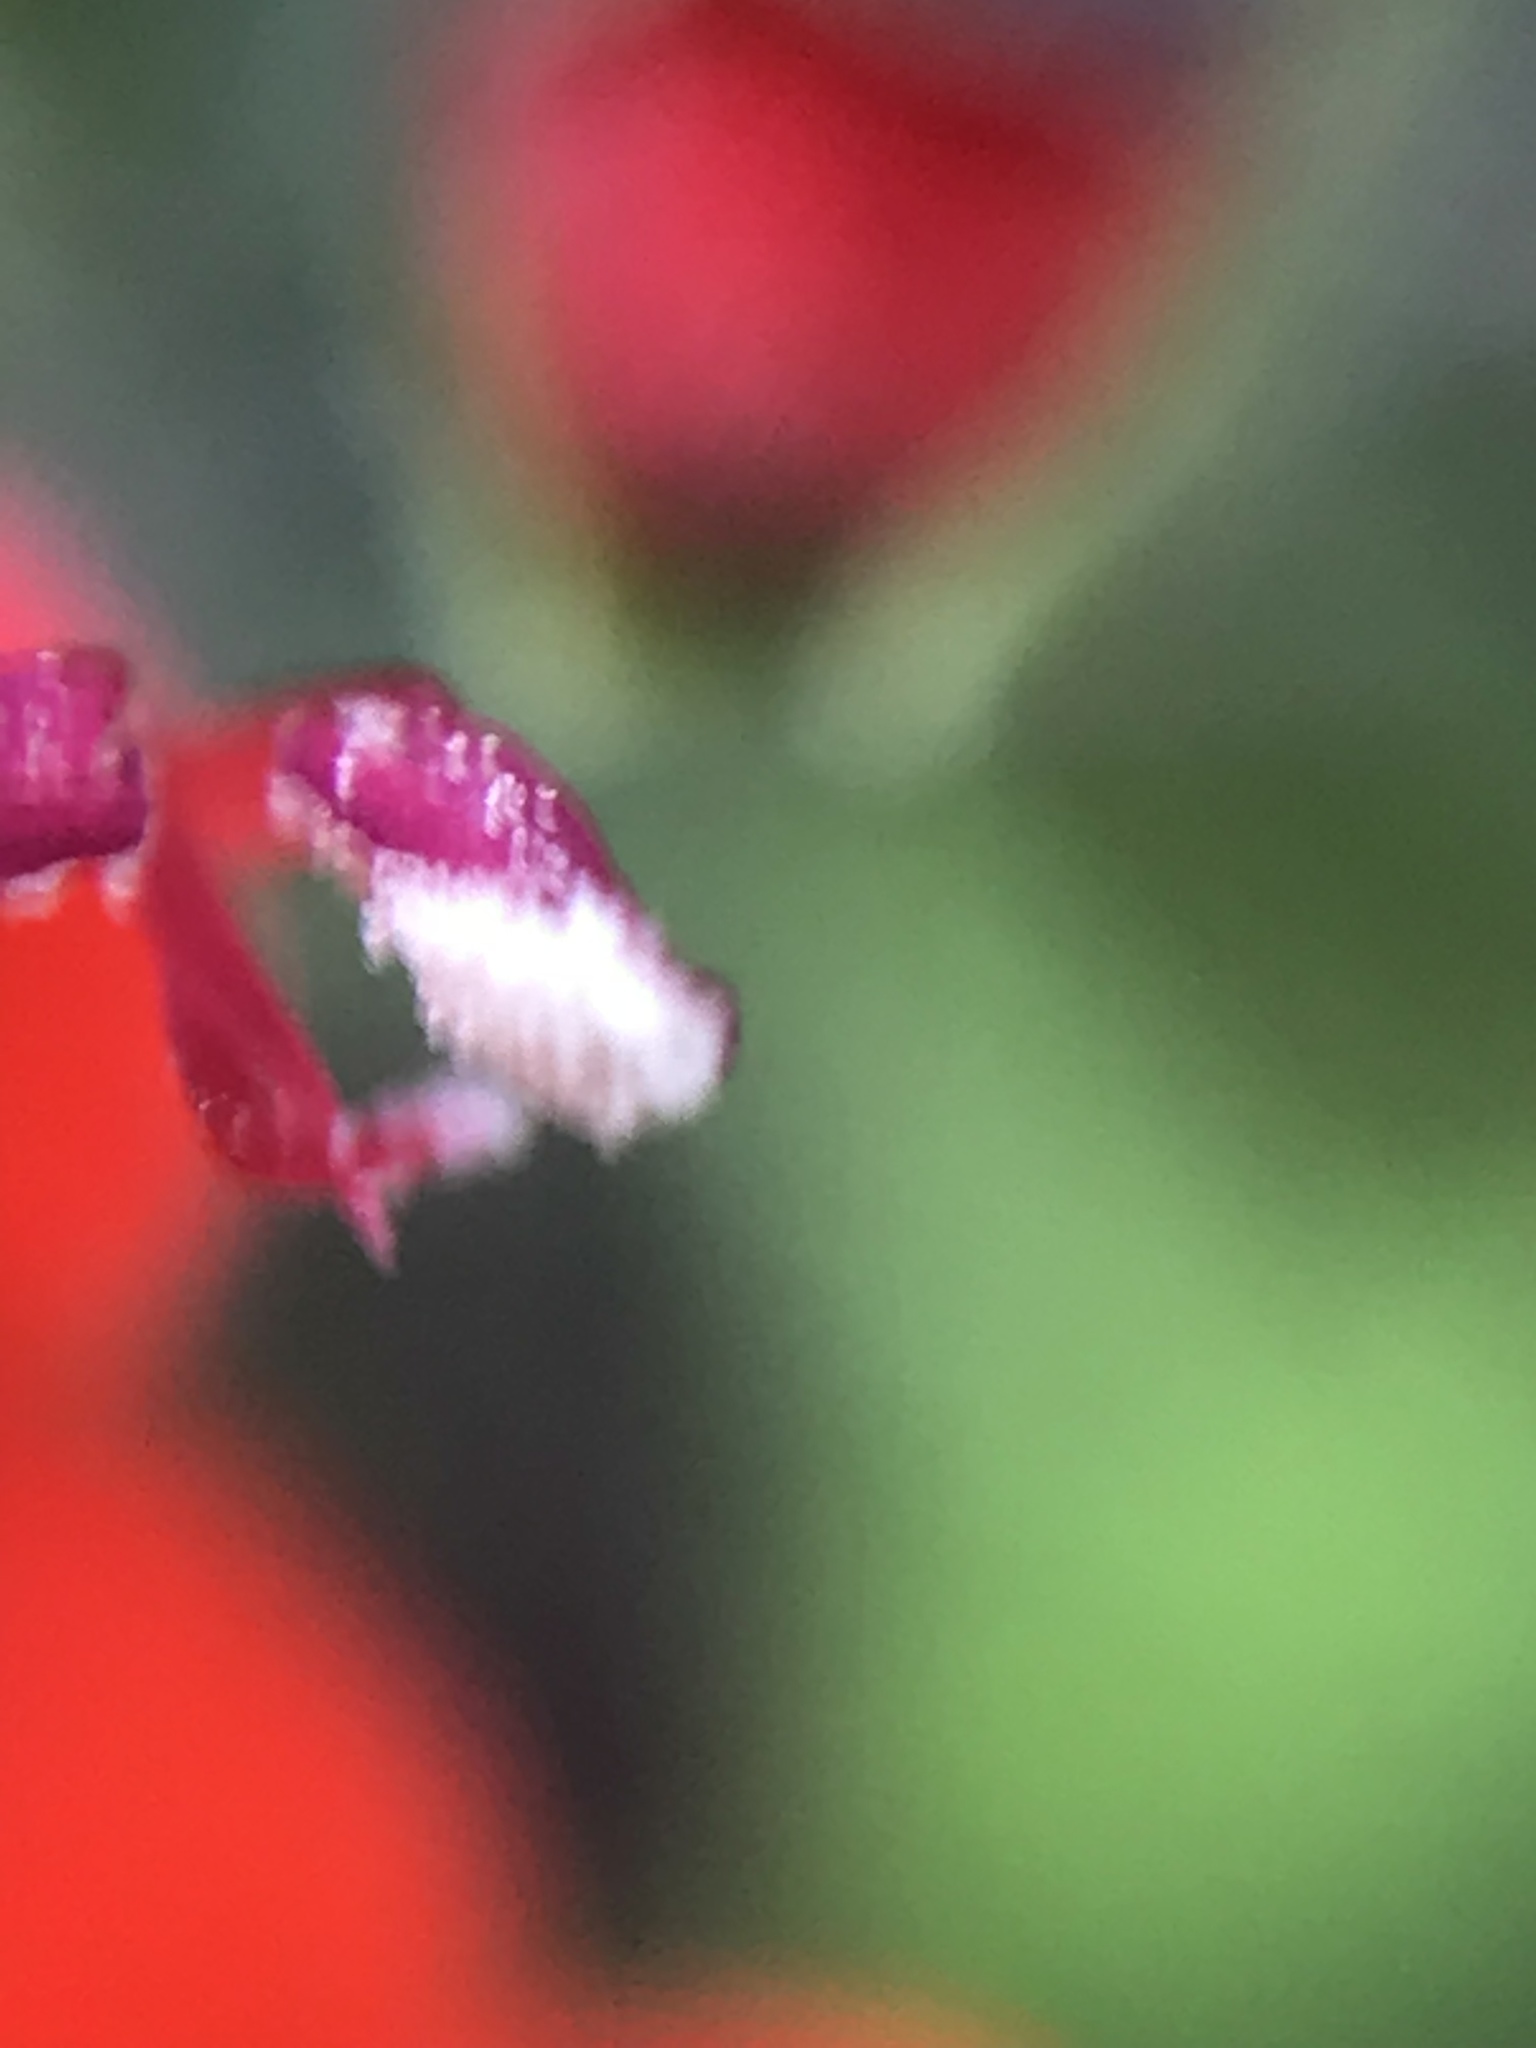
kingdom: Plantae
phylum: Tracheophyta
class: Magnoliopsida
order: Lamiales
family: Lamiaceae
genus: Salvia
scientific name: Salvia coccinea
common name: Blood sage
